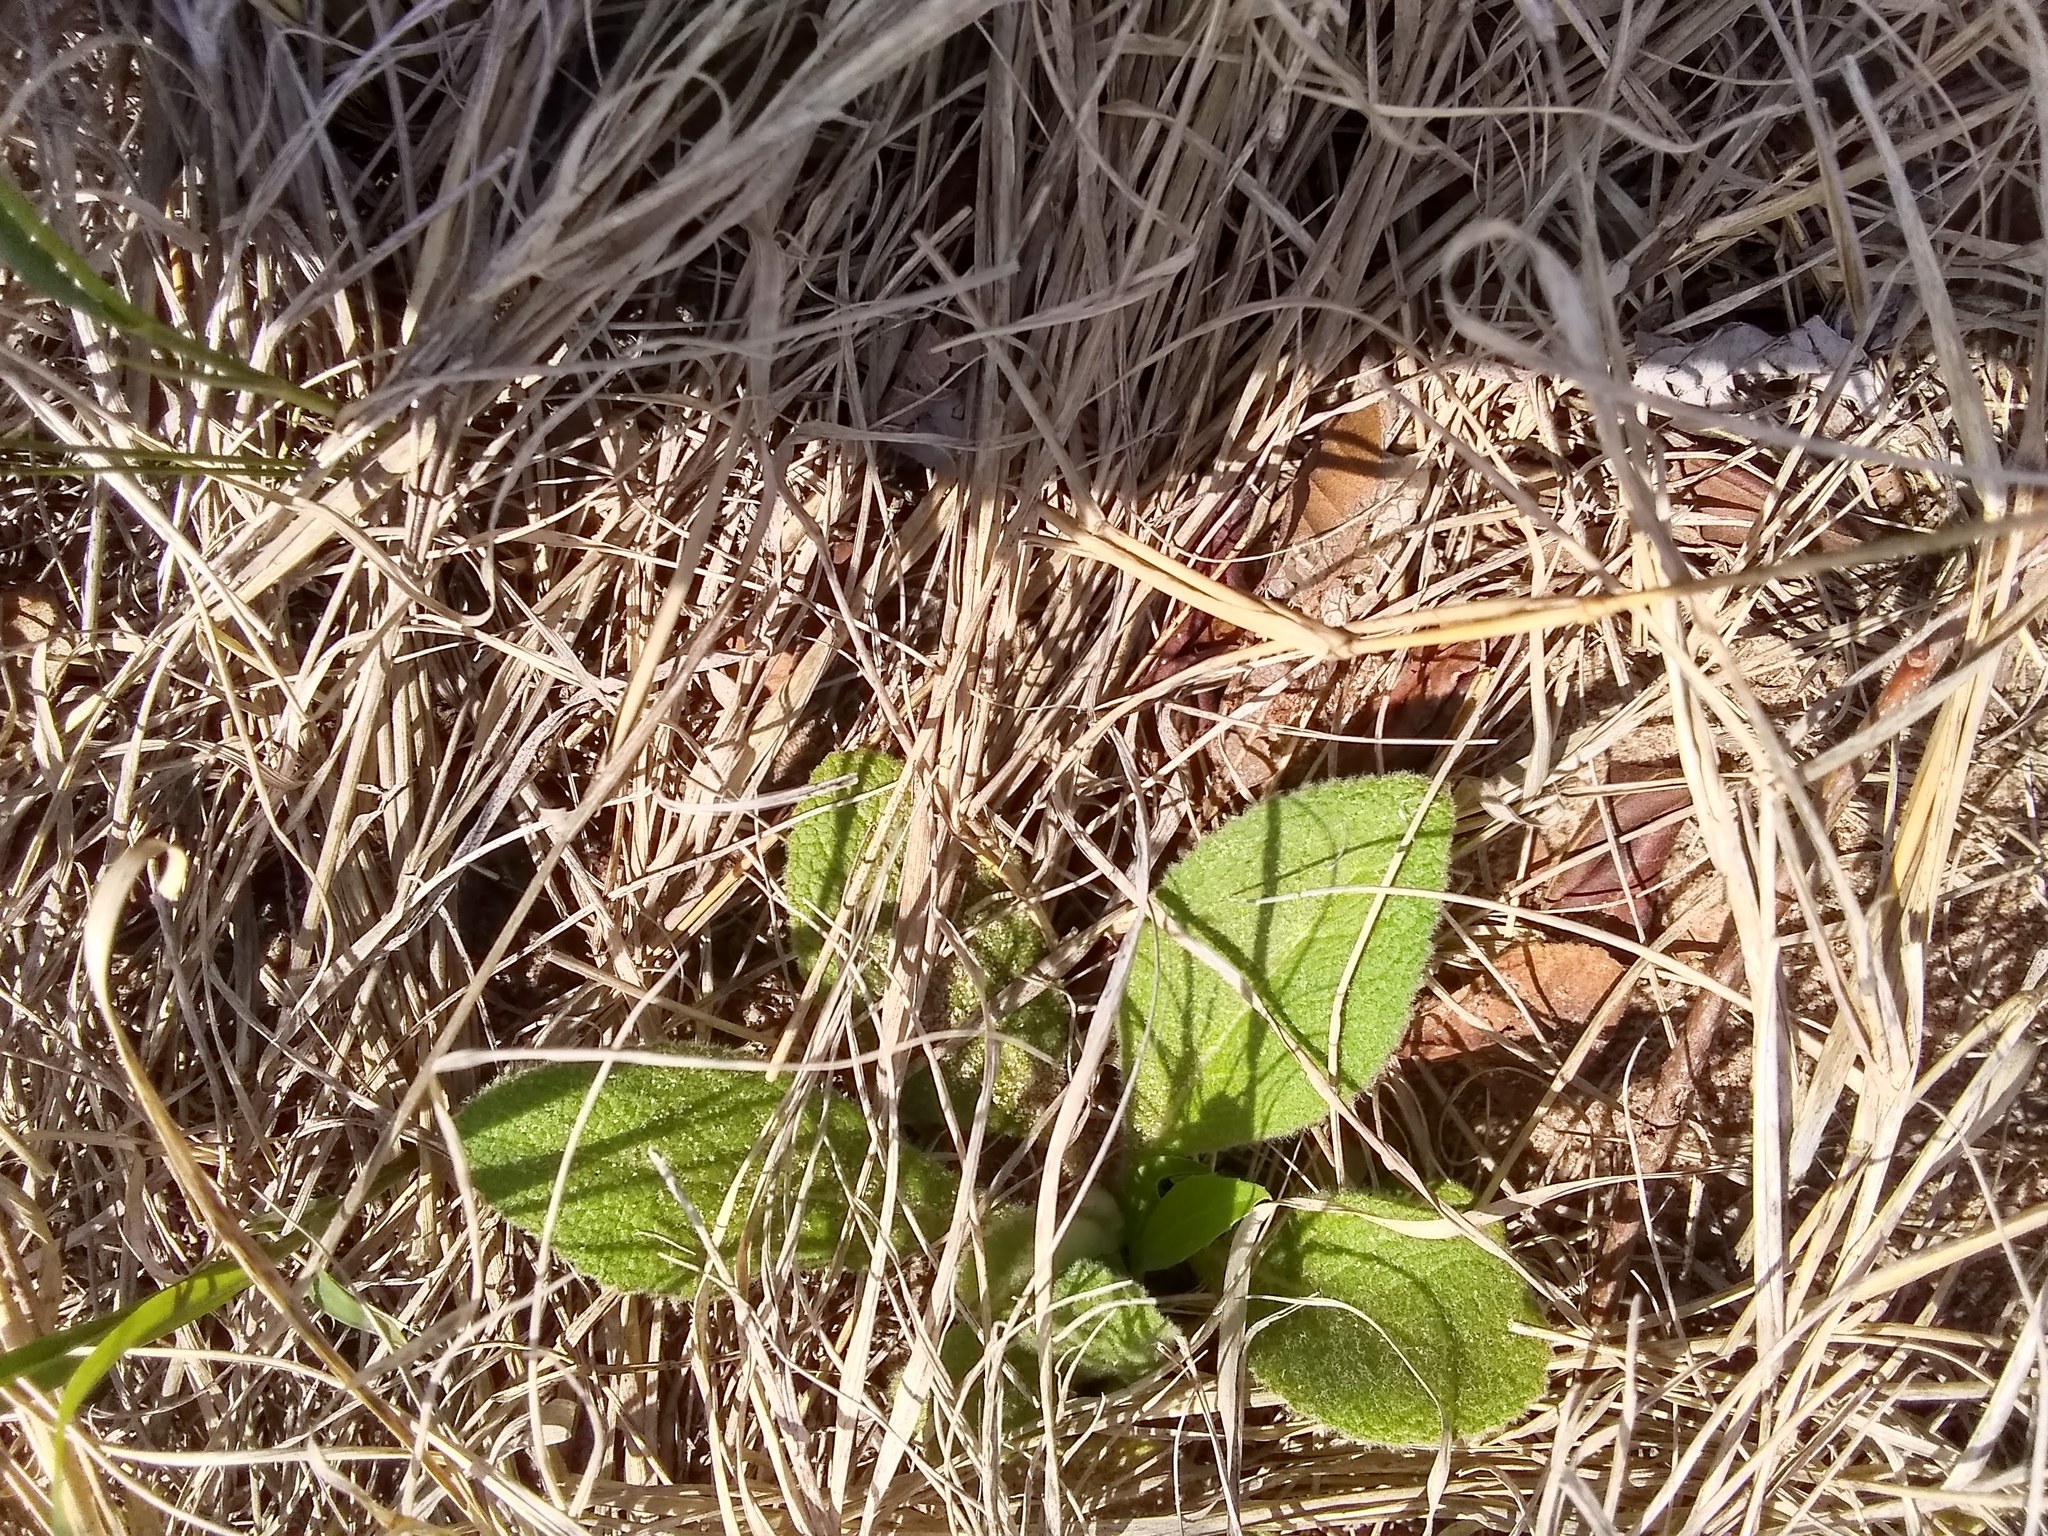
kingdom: Plantae
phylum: Tracheophyta
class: Magnoliopsida
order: Lamiales
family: Scrophulariaceae
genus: Verbascum
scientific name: Verbascum thapsus
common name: Common mullein
